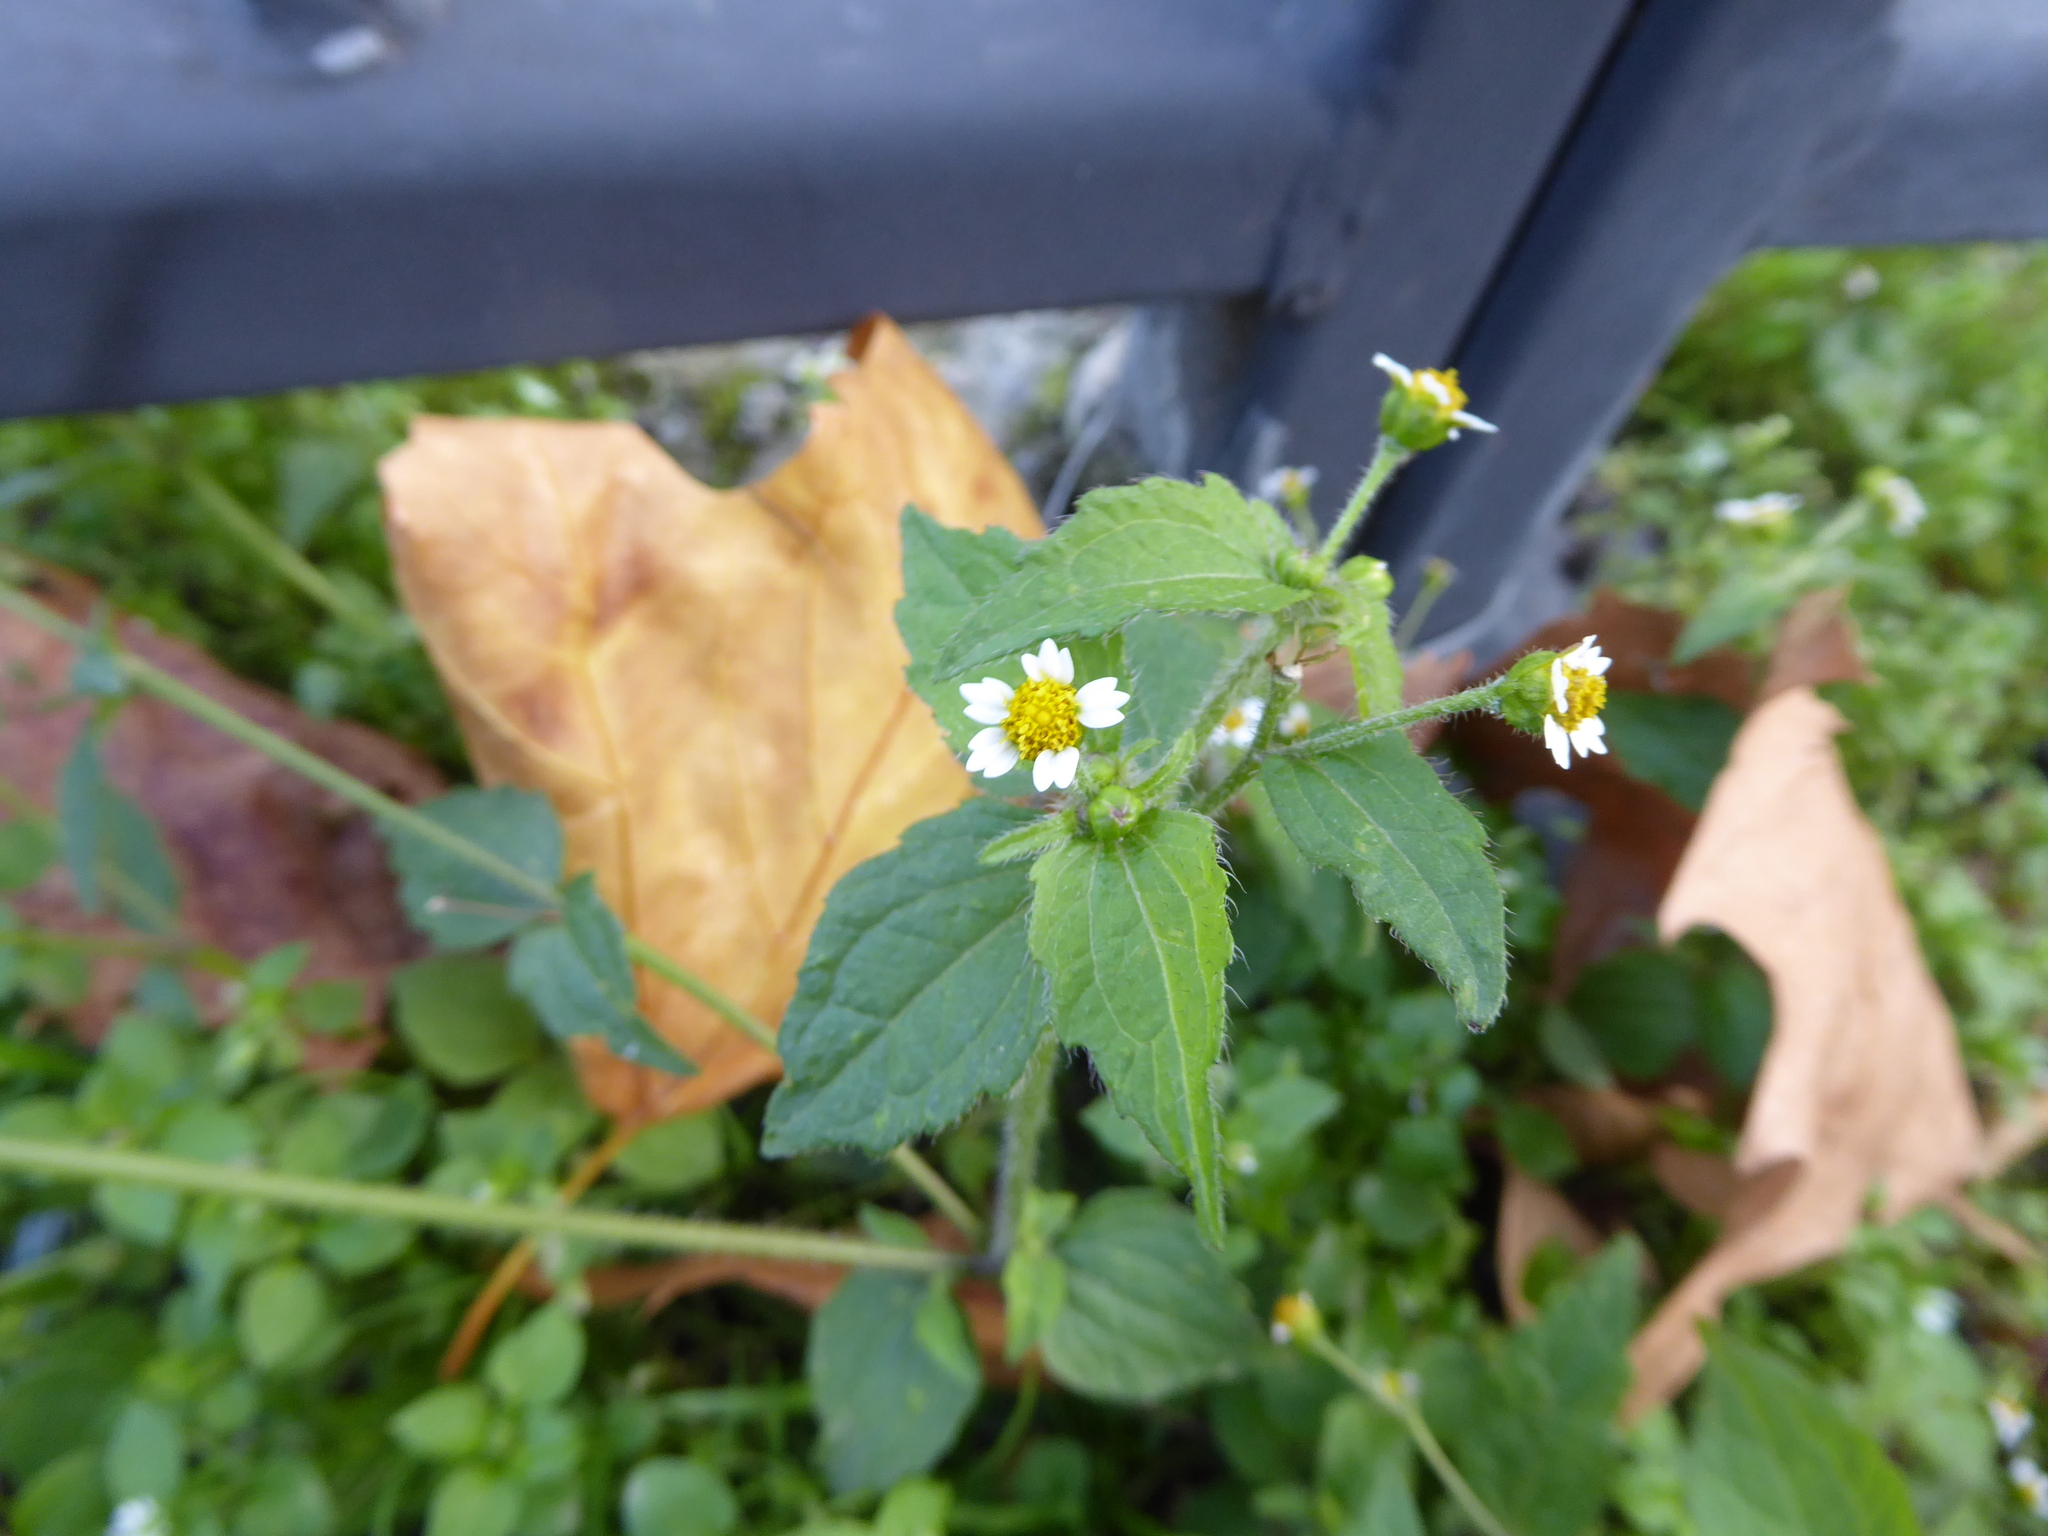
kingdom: Plantae
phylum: Tracheophyta
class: Magnoliopsida
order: Asterales
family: Asteraceae
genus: Galinsoga
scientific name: Galinsoga quadriradiata
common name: Shaggy soldier
